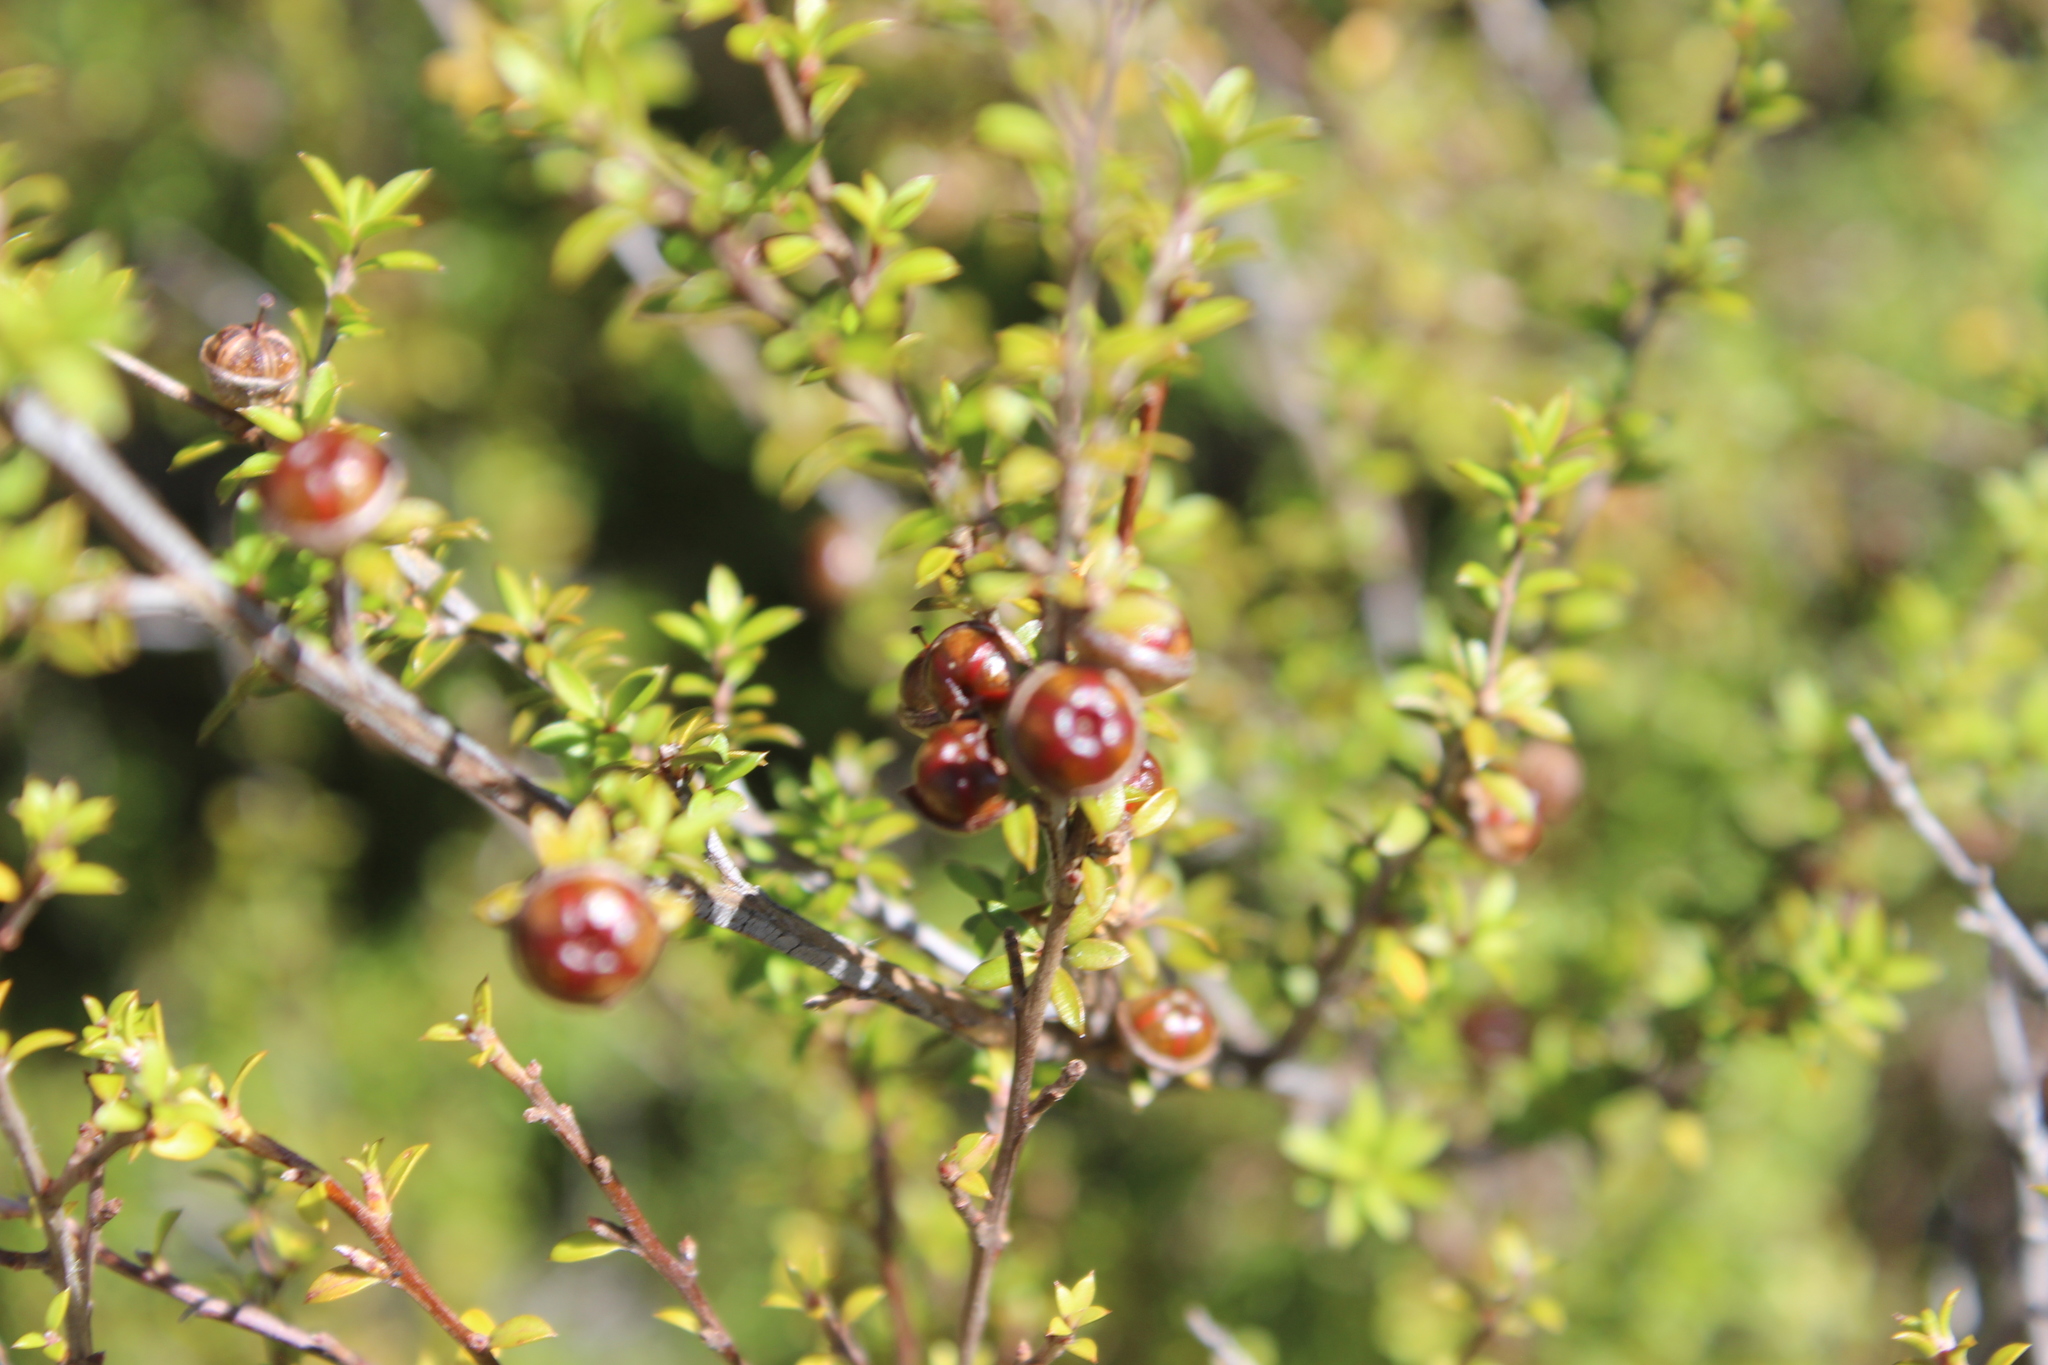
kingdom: Plantae
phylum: Tracheophyta
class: Magnoliopsida
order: Myrtales
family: Myrtaceae
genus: Leptospermum
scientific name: Leptospermum scoparium
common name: Broom tea-tree
